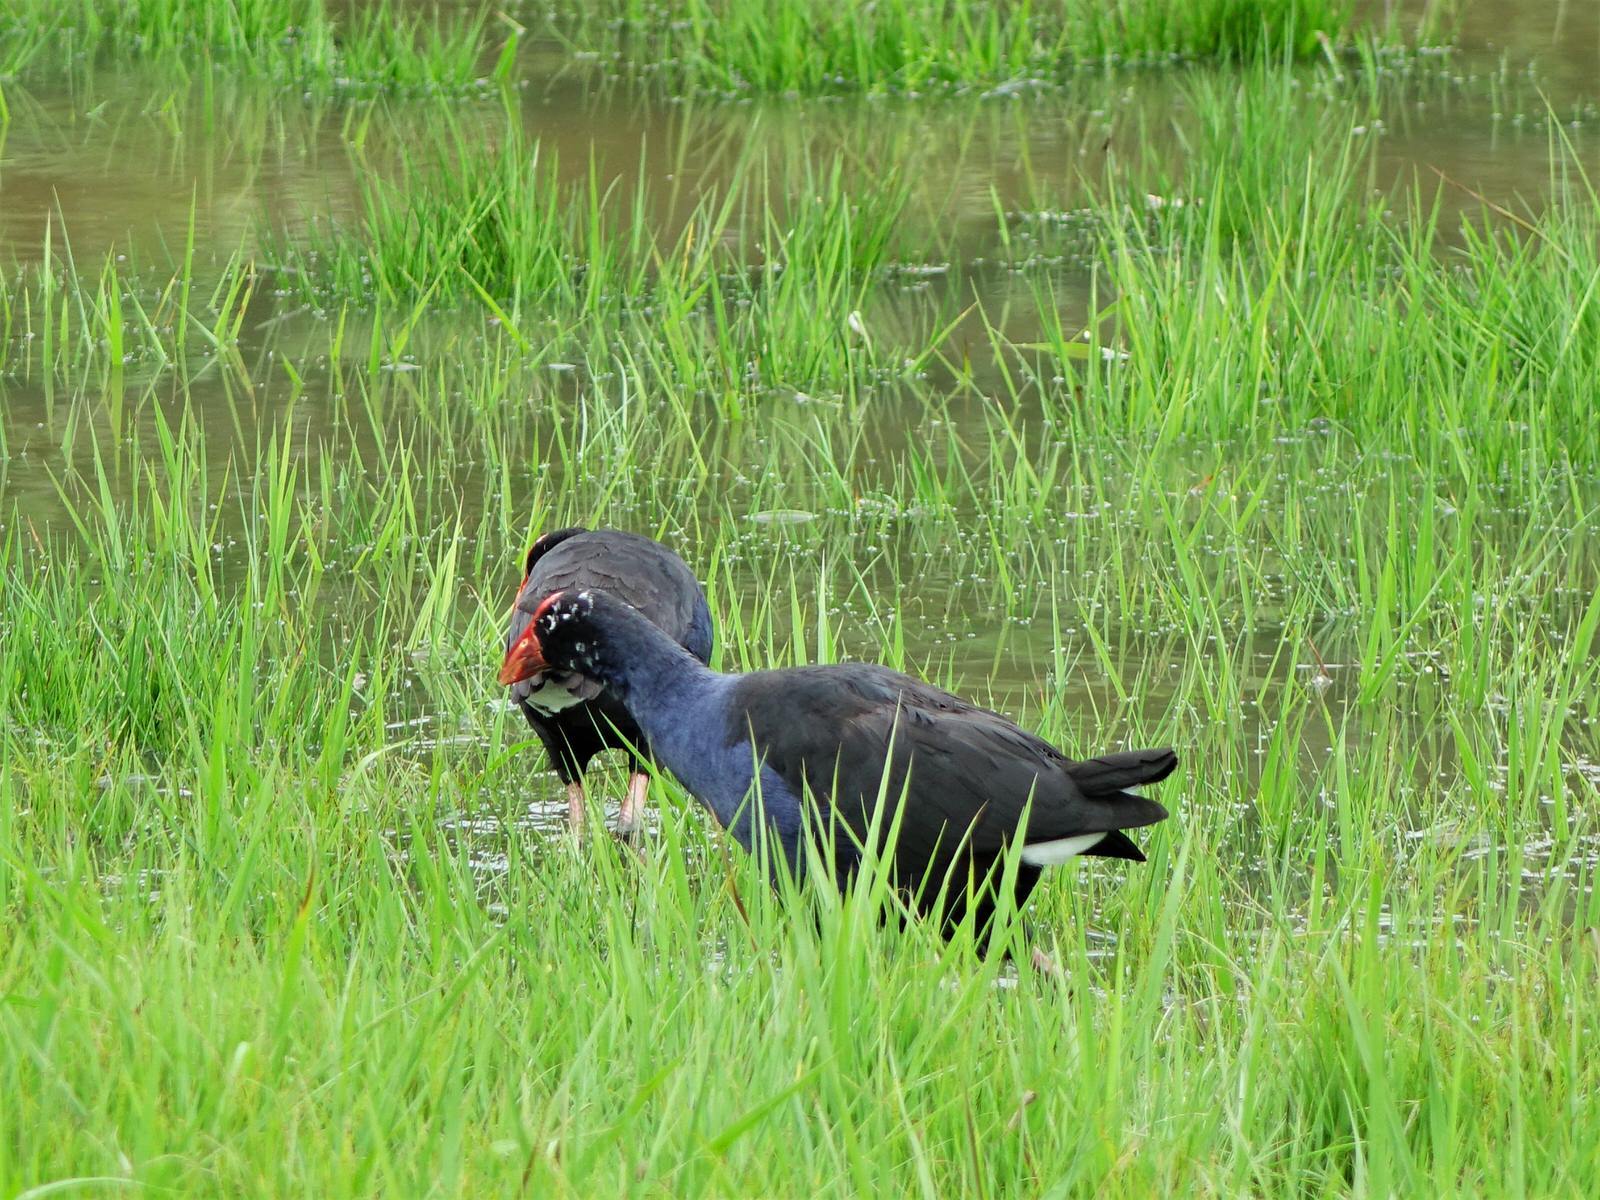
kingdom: Animalia
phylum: Chordata
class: Aves
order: Gruiformes
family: Rallidae
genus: Porphyrio
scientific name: Porphyrio melanotus
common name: Australasian swamphen
